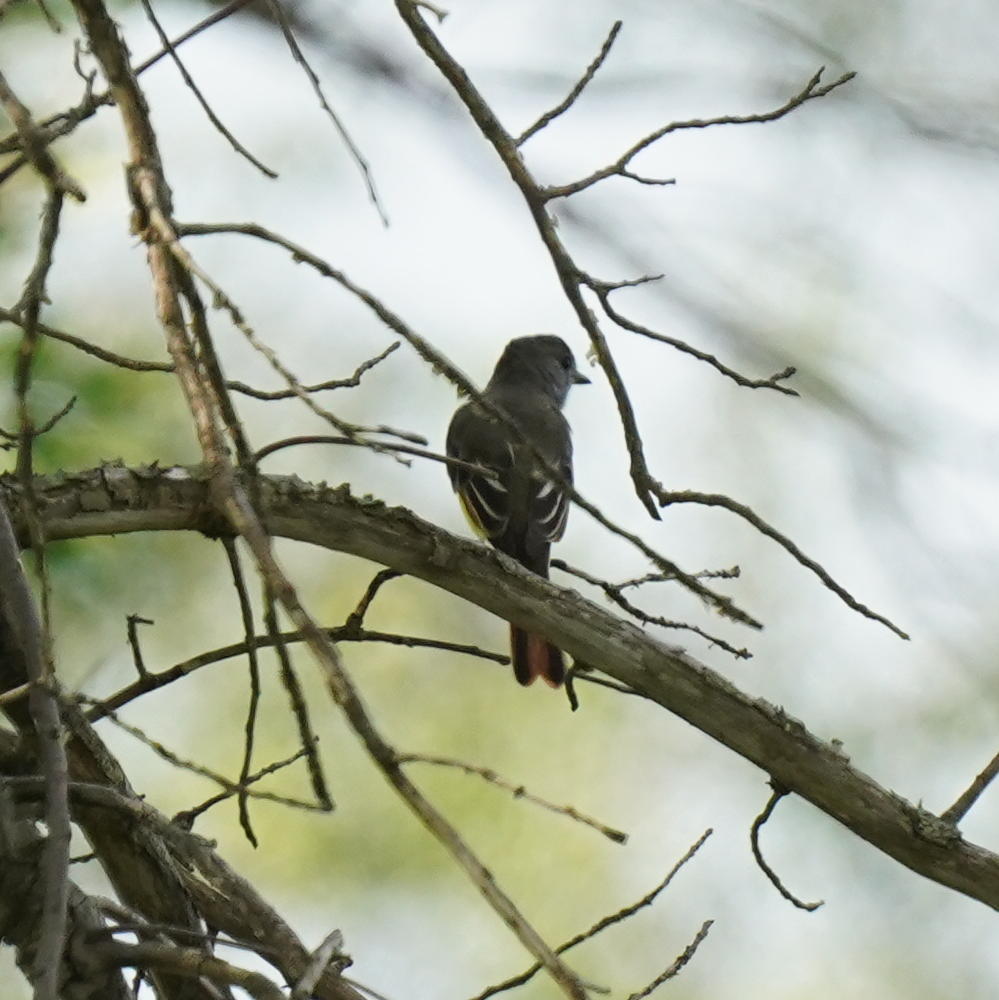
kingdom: Animalia
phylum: Chordata
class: Aves
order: Passeriformes
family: Tyrannidae
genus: Myiarchus
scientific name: Myiarchus crinitus
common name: Great crested flycatcher
